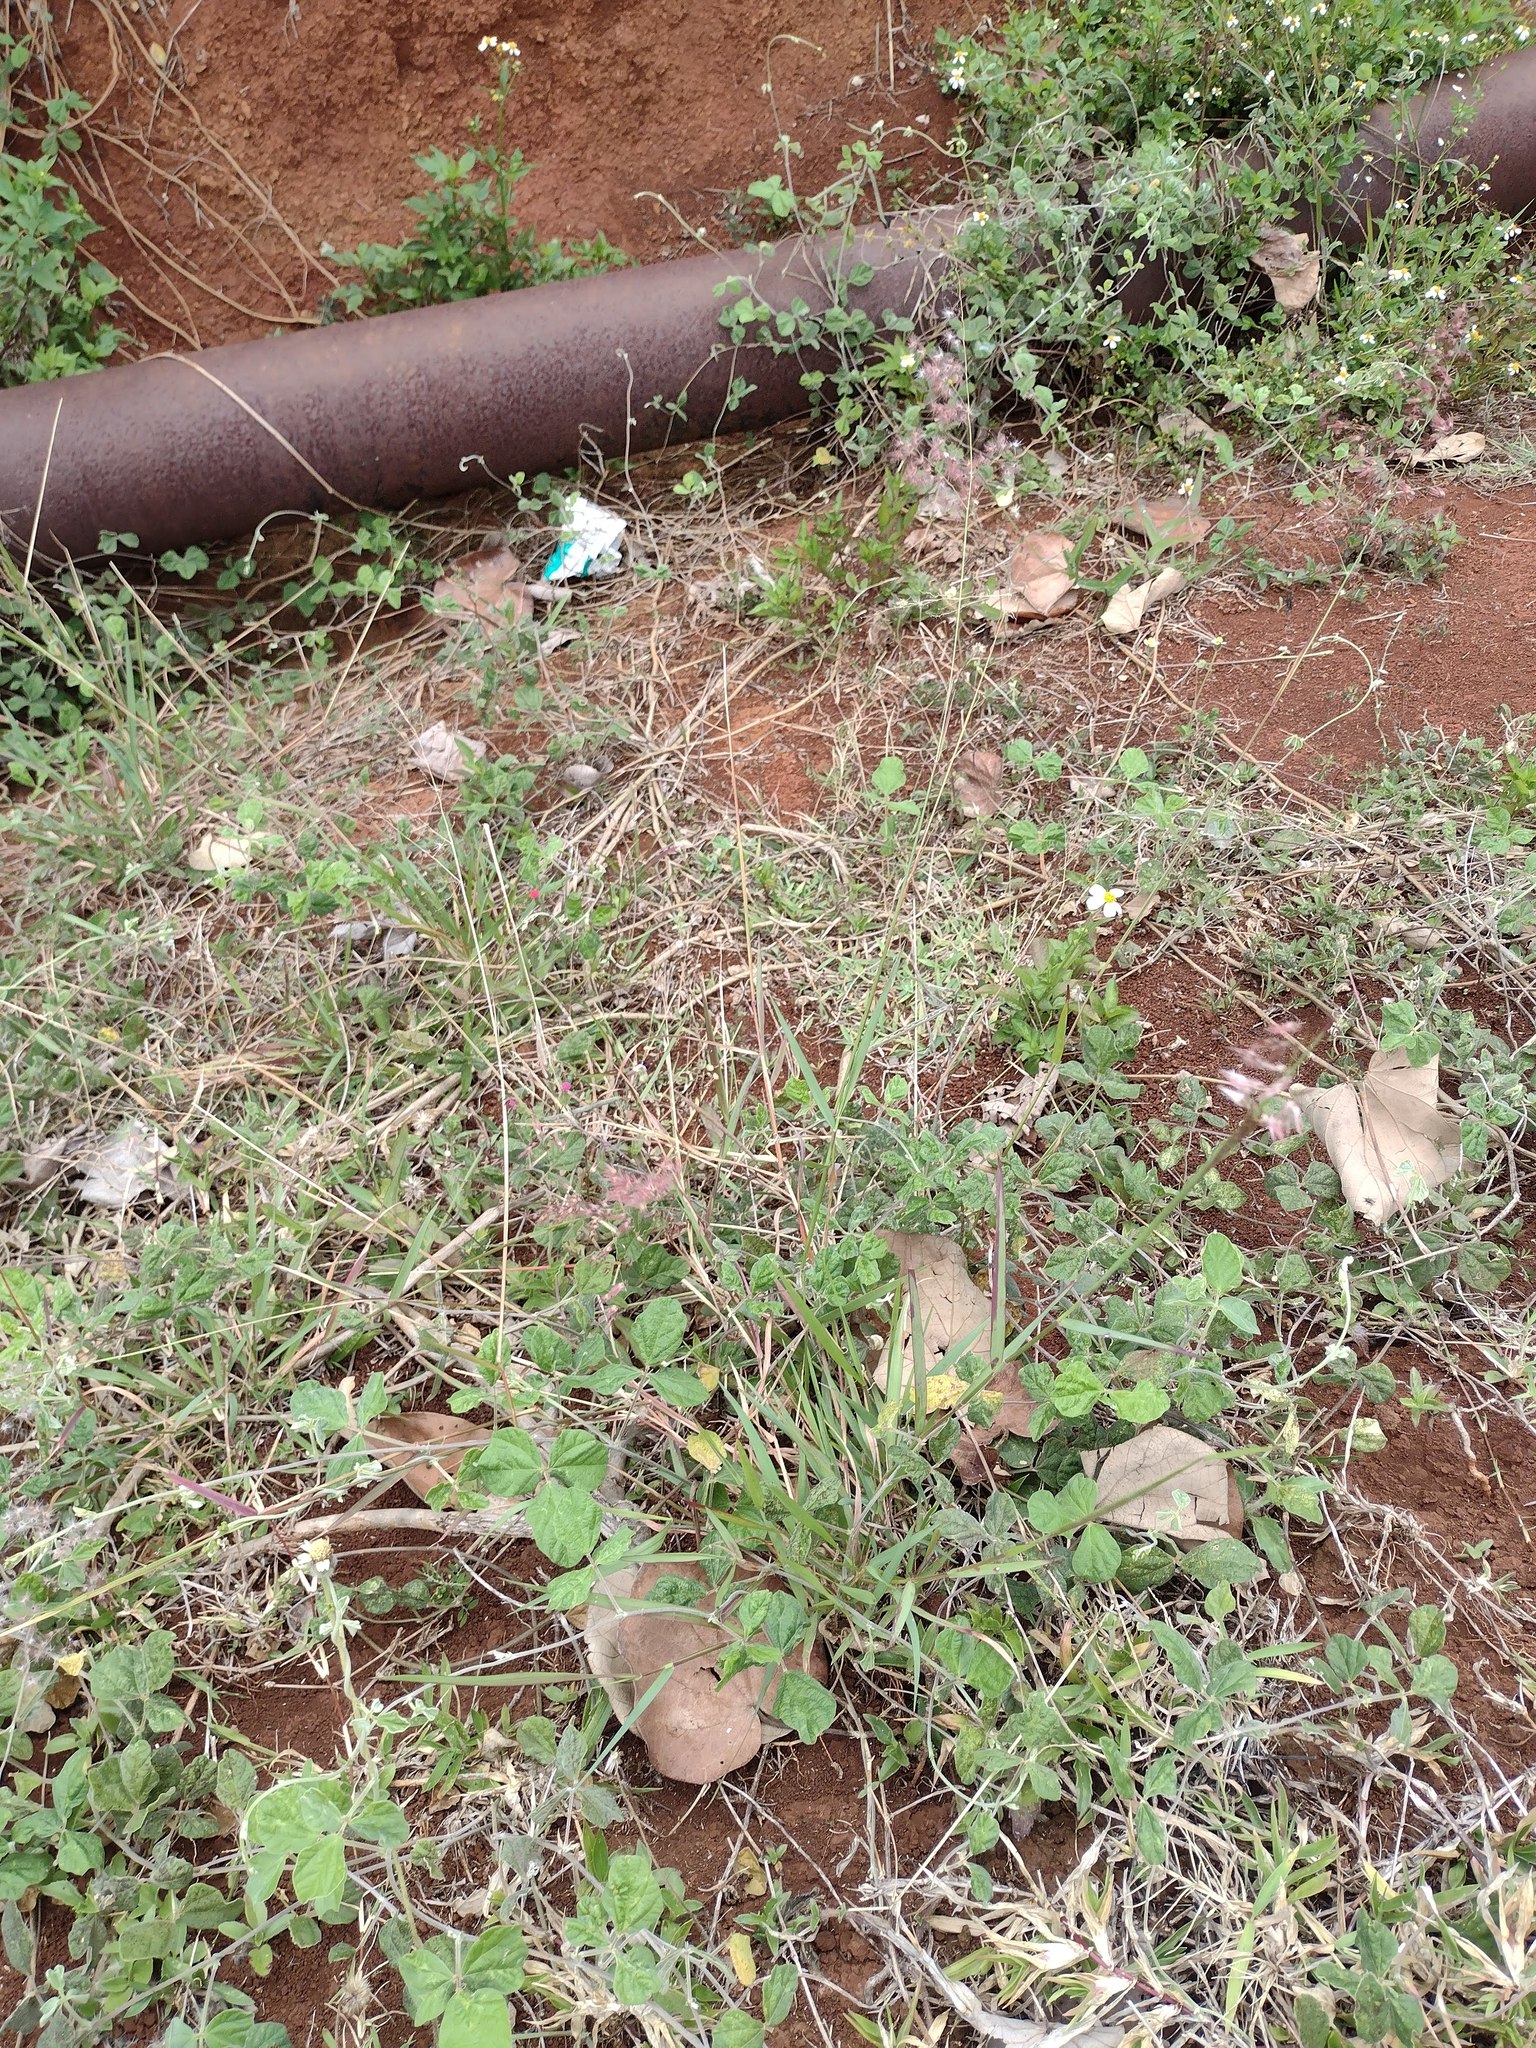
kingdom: Plantae
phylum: Tracheophyta
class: Liliopsida
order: Poales
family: Poaceae
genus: Melinis
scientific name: Melinis repens
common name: Rose natal grass
